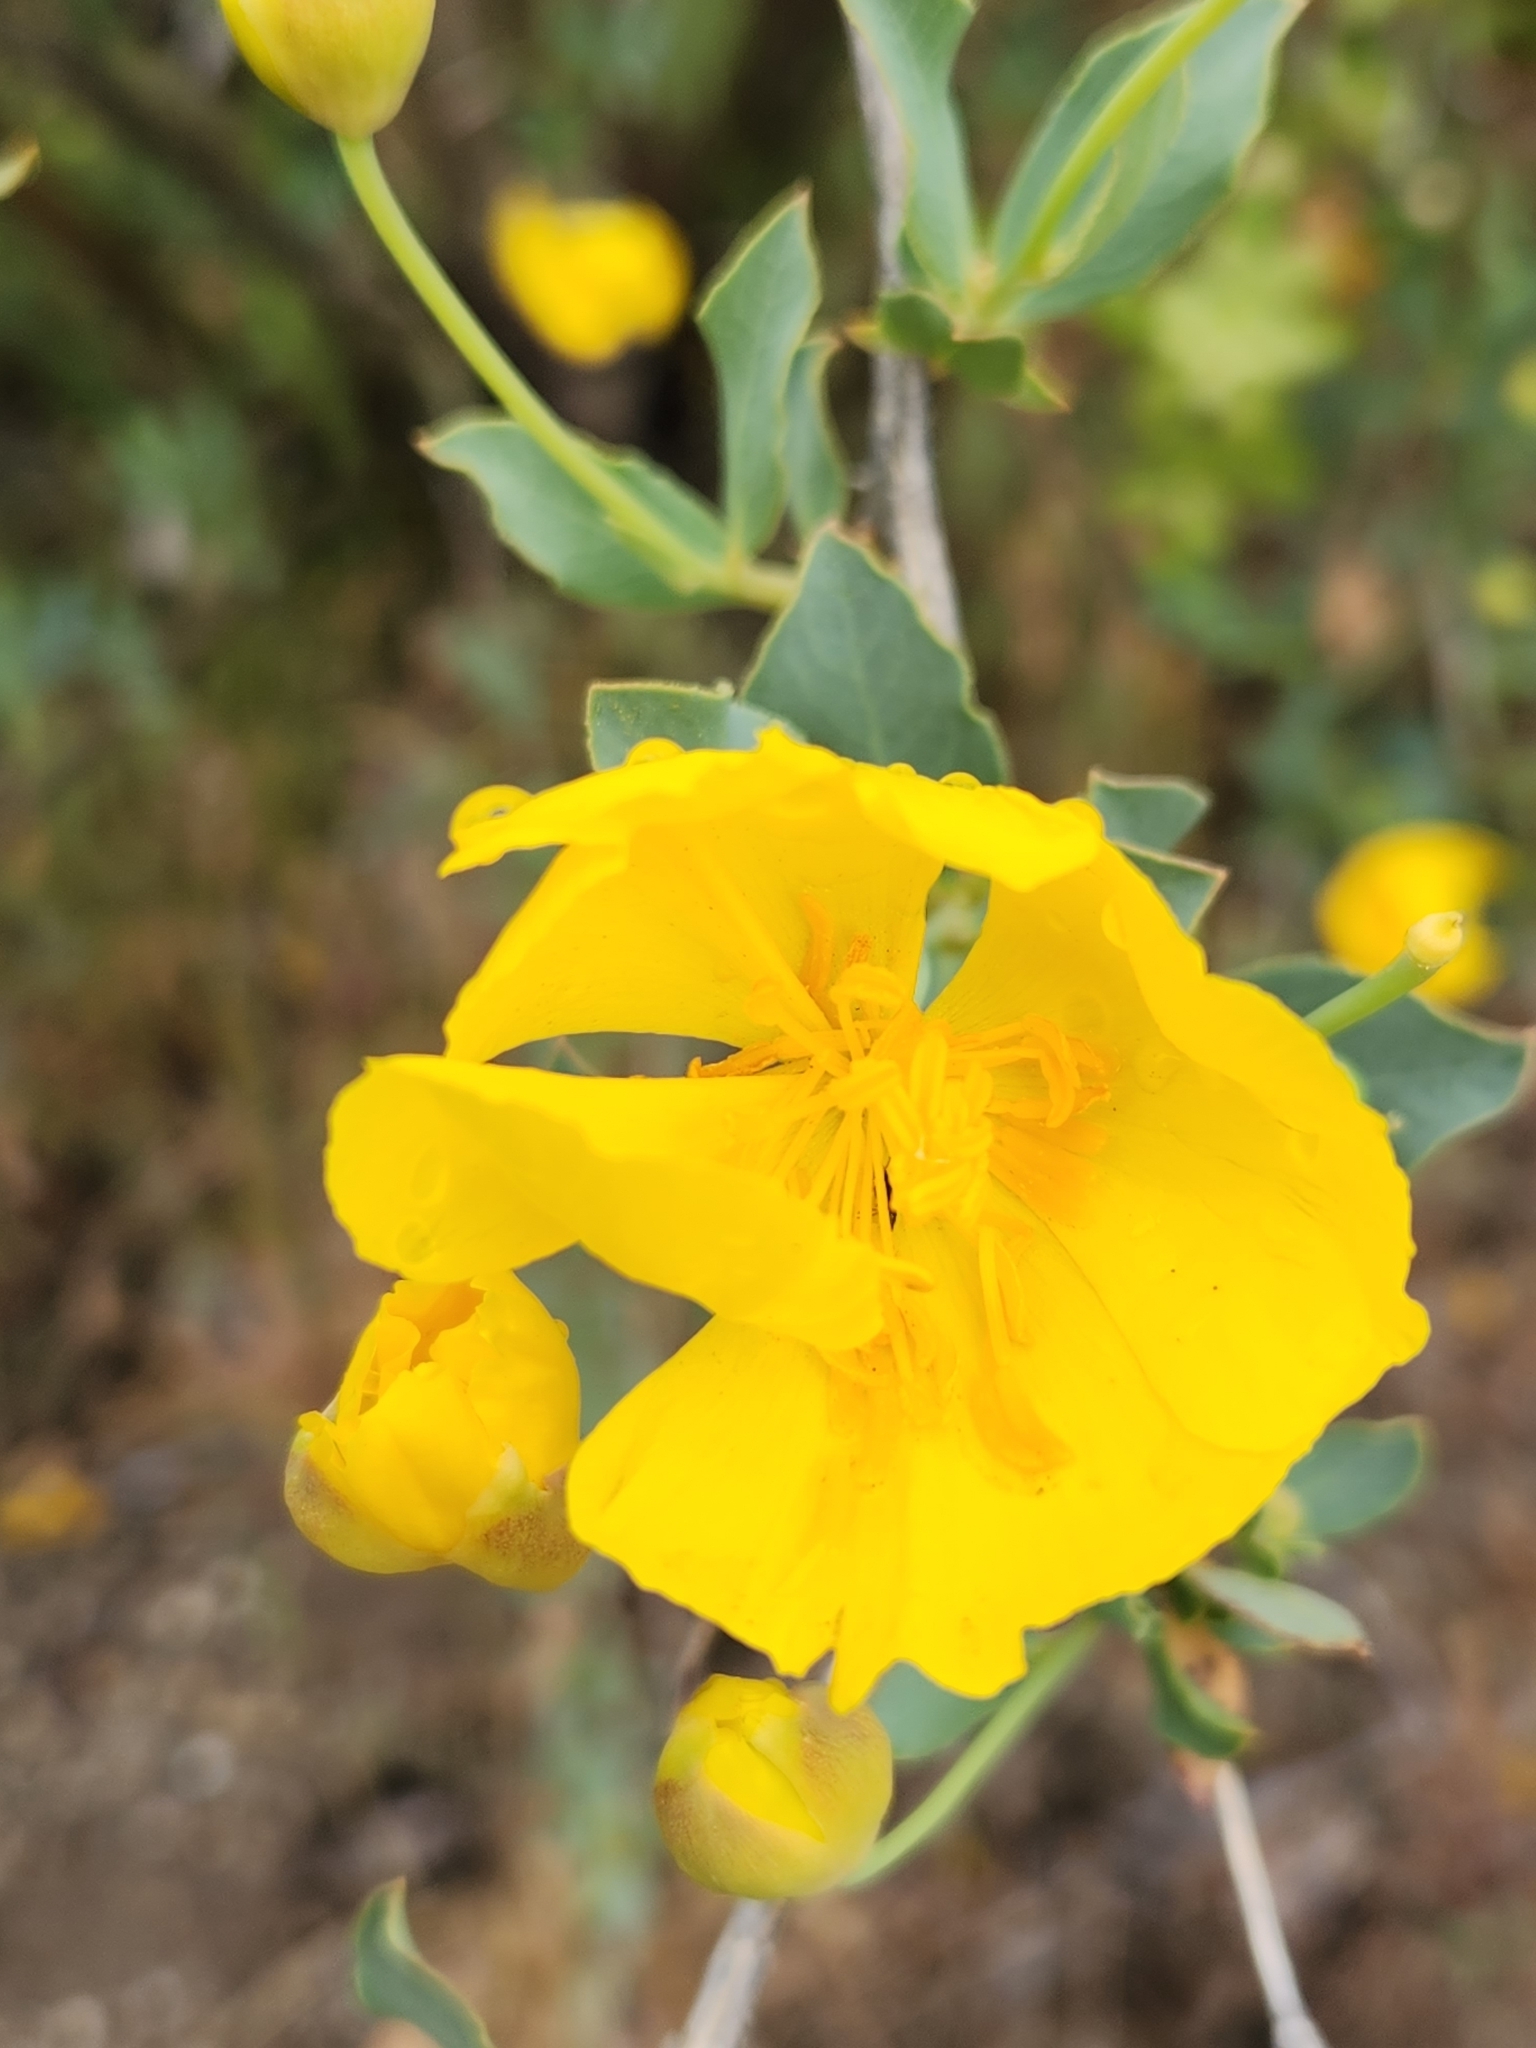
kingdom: Plantae
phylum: Tracheophyta
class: Magnoliopsida
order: Ranunculales
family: Papaveraceae
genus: Dendromecon
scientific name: Dendromecon rigida
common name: Tree poppy
